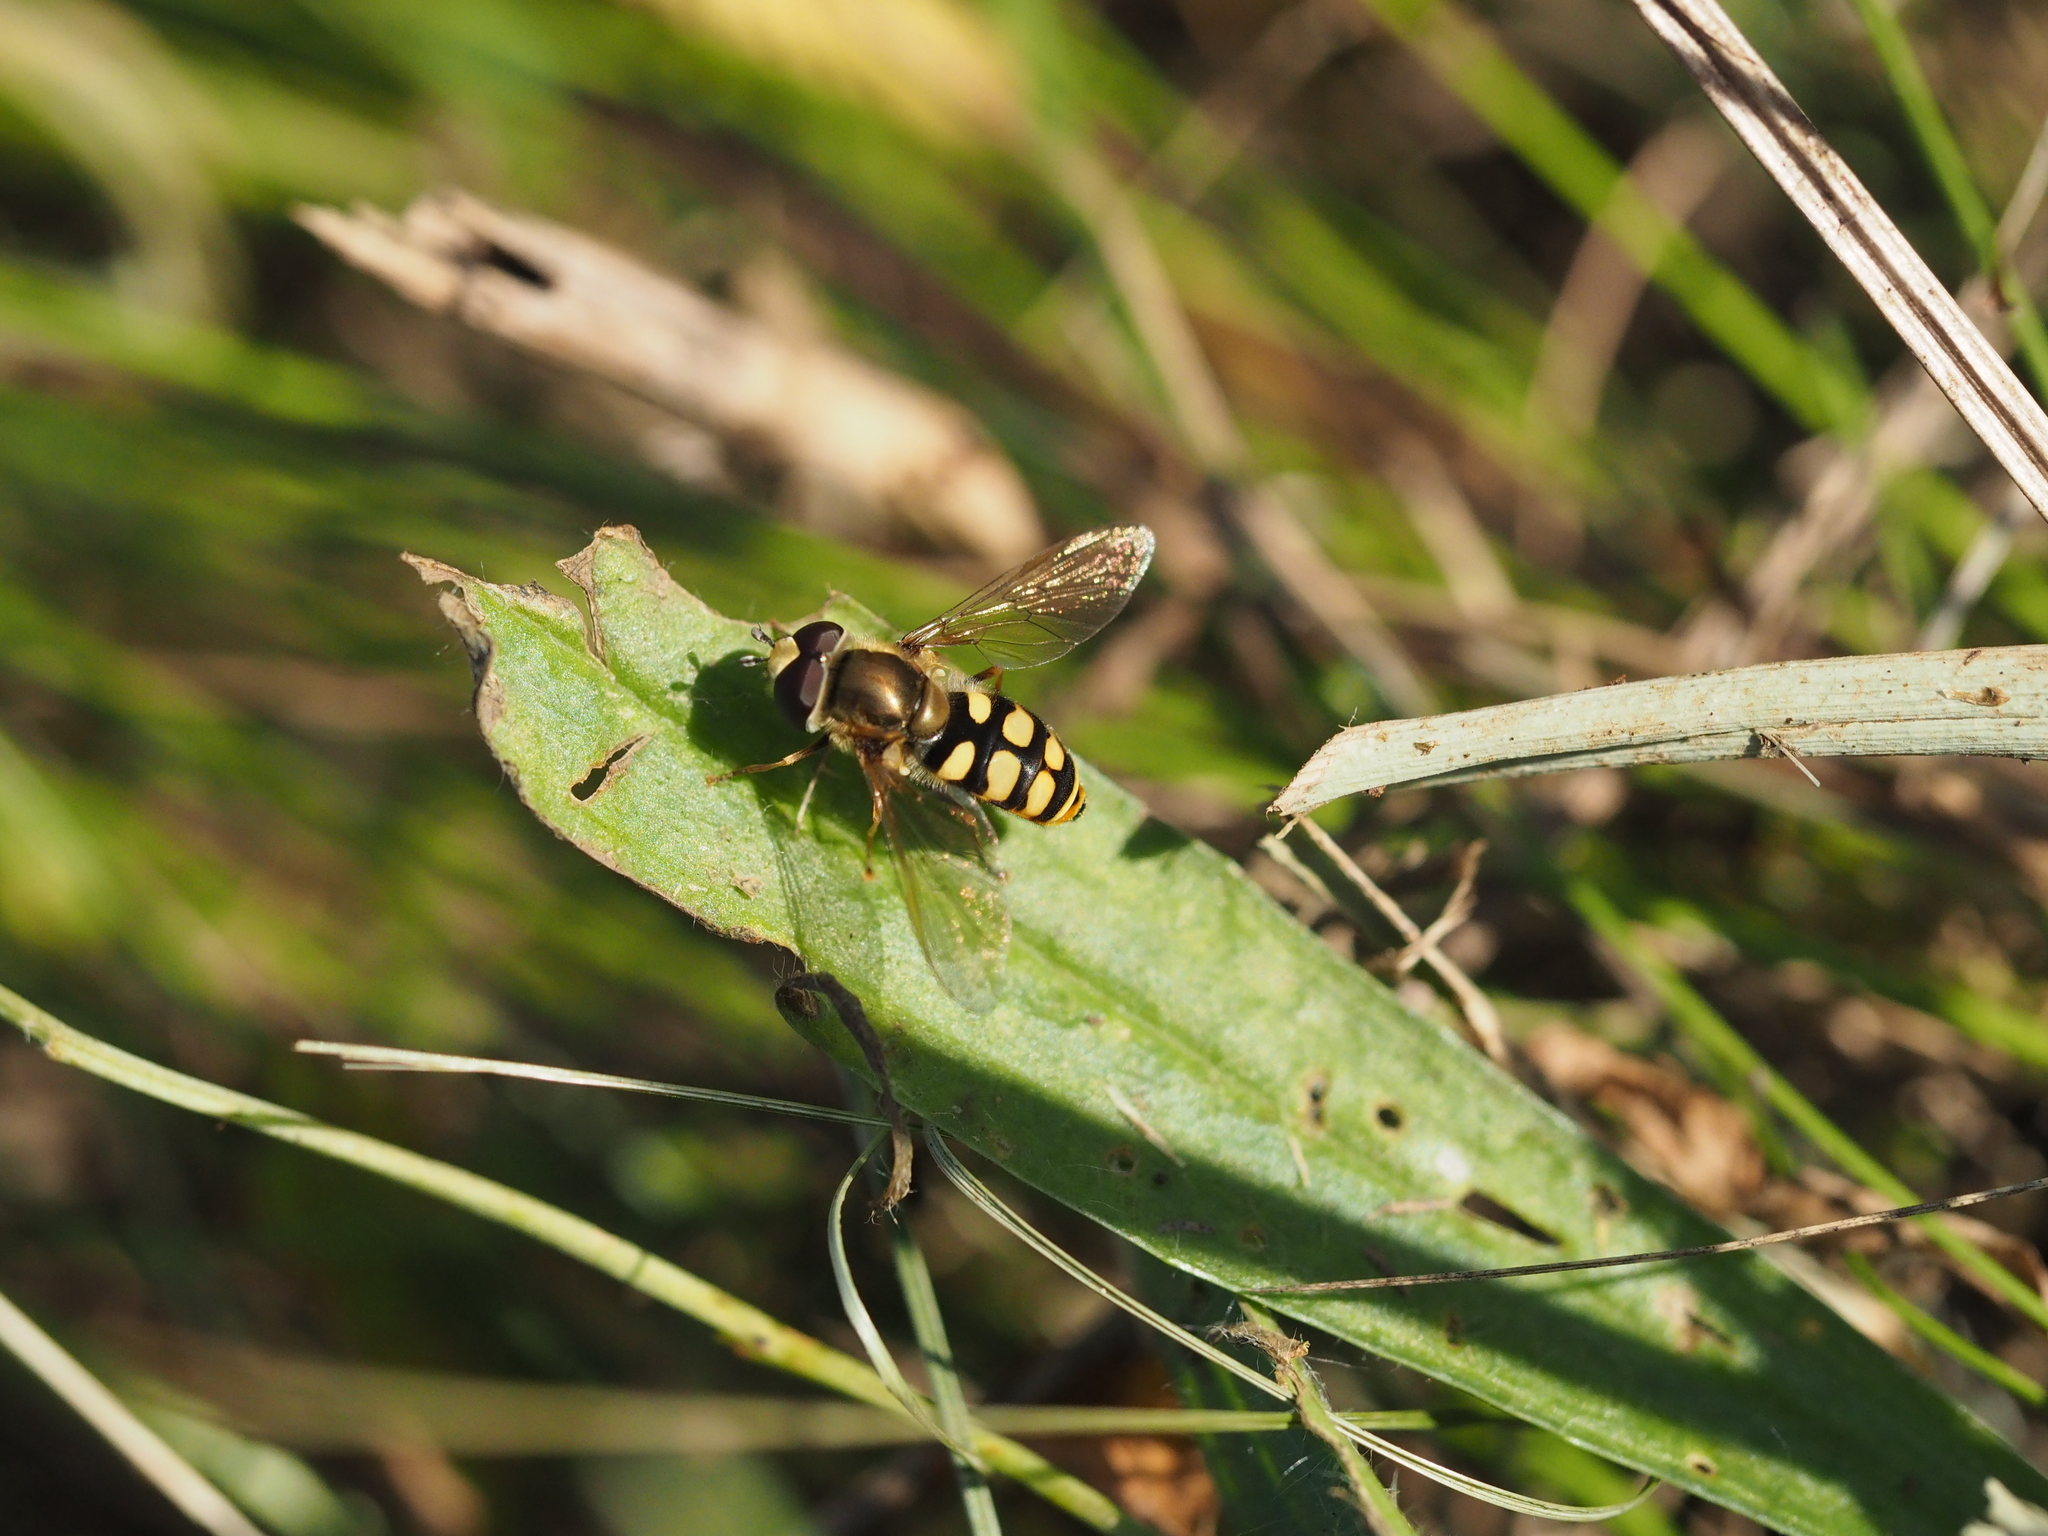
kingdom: Animalia
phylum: Arthropoda
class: Insecta
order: Diptera
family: Syrphidae
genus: Eupeodes
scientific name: Eupeodes corollae
